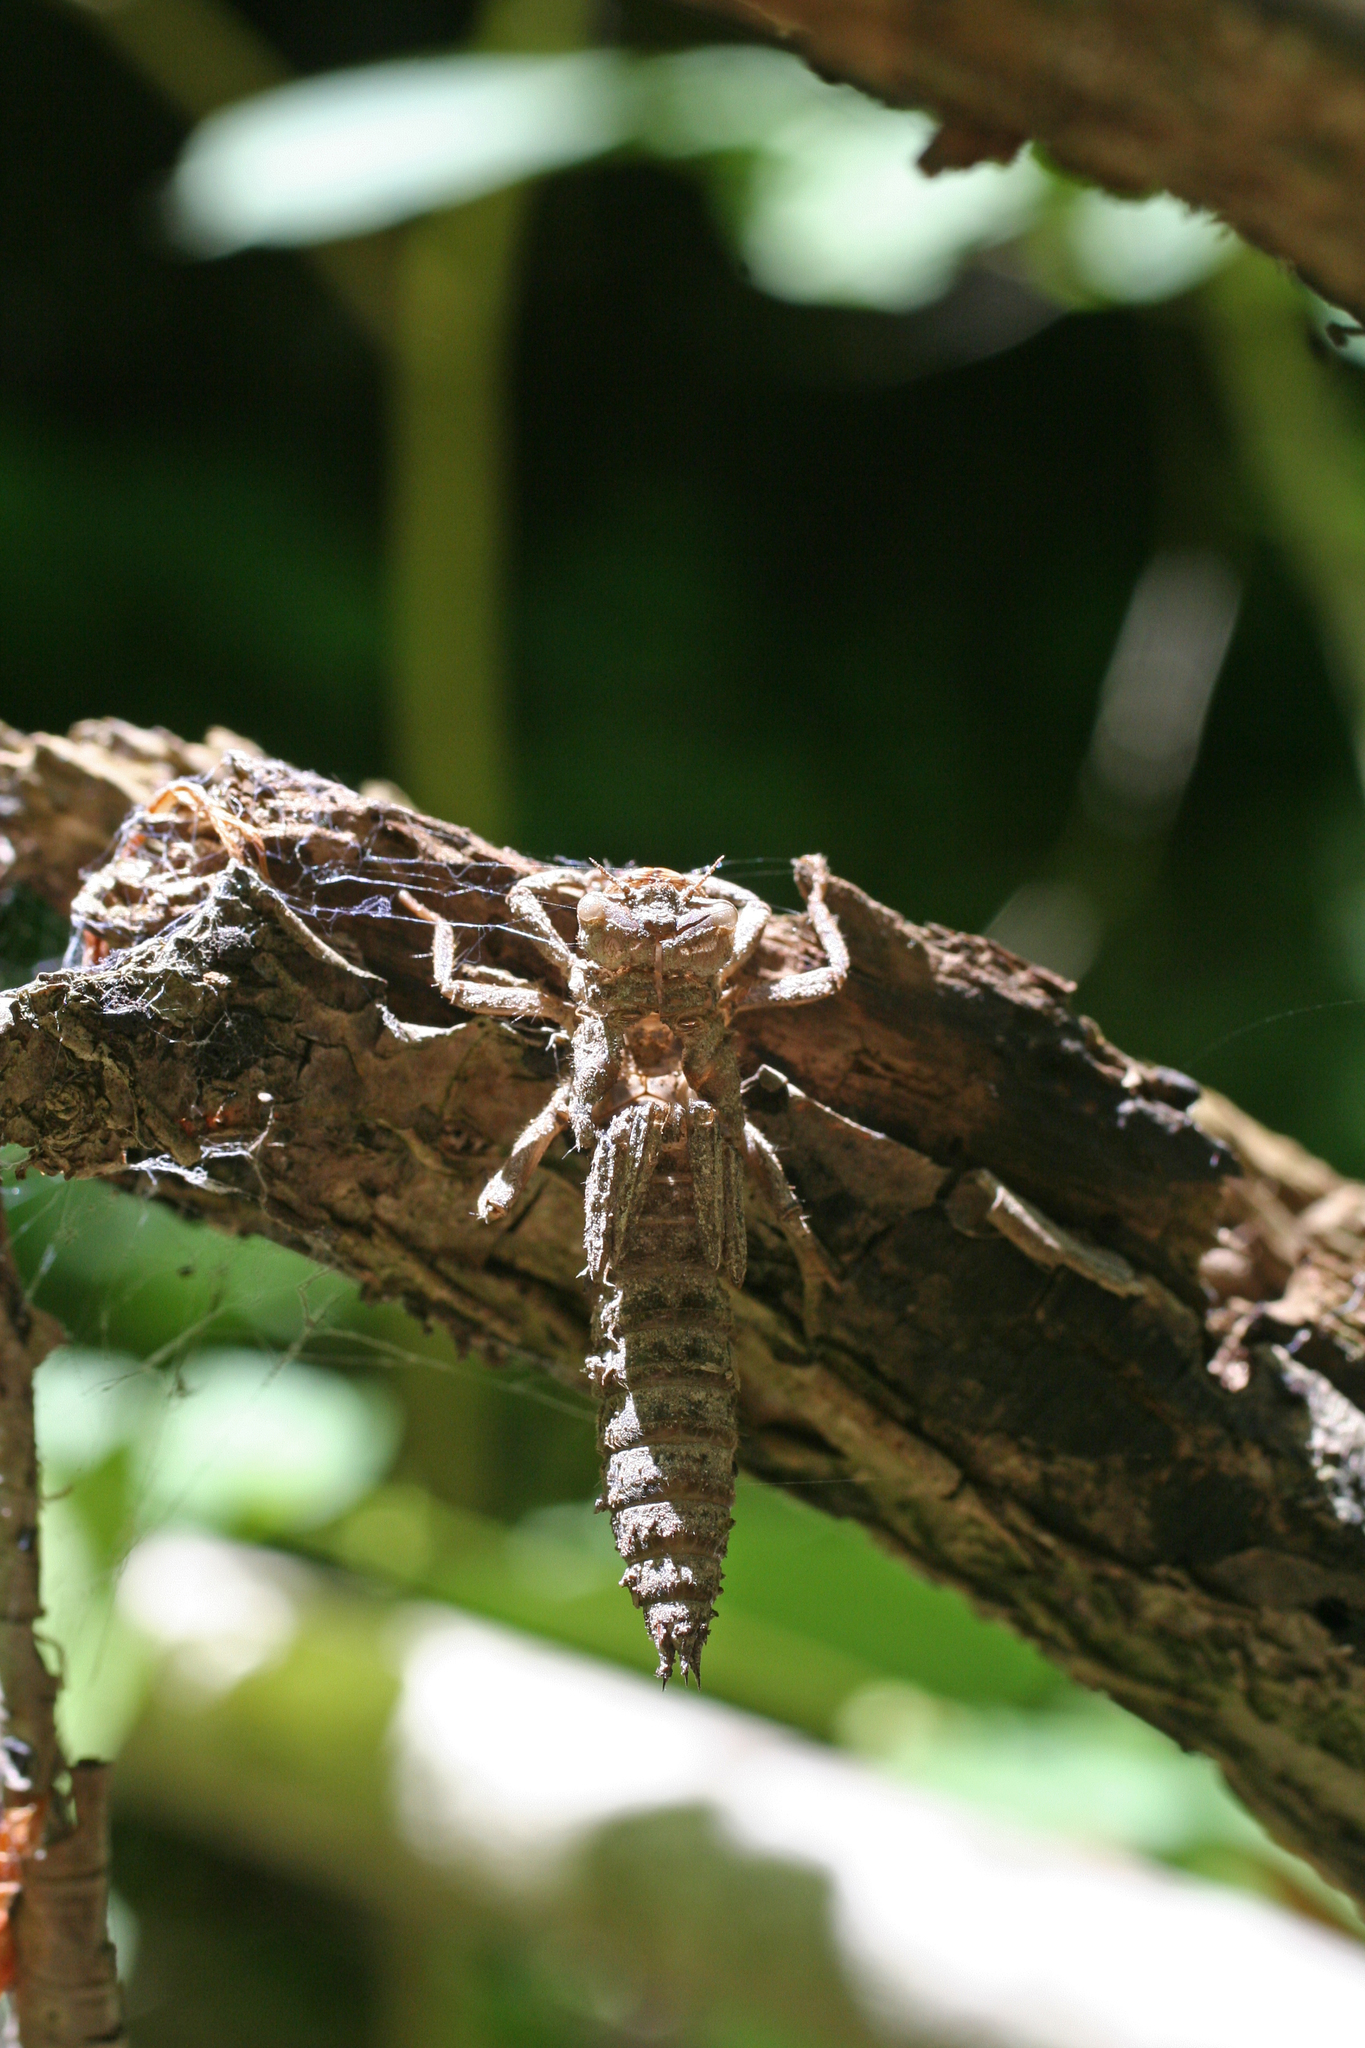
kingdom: Animalia
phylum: Arthropoda
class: Insecta
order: Odonata
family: Cordulegastridae
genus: Cordulegaster
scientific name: Cordulegaster charpentieri
